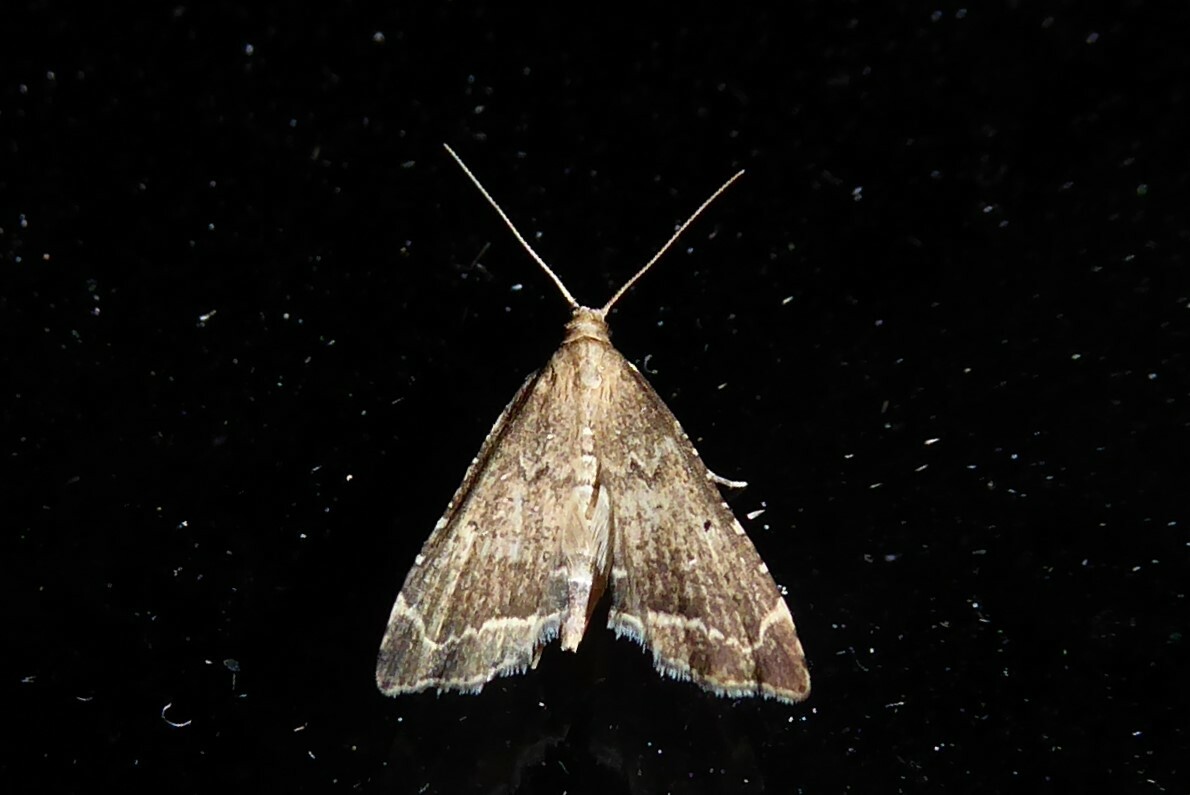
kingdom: Animalia
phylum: Arthropoda
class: Insecta
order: Lepidoptera
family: Crambidae
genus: Diplopseustis
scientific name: Diplopseustis perieresalis
